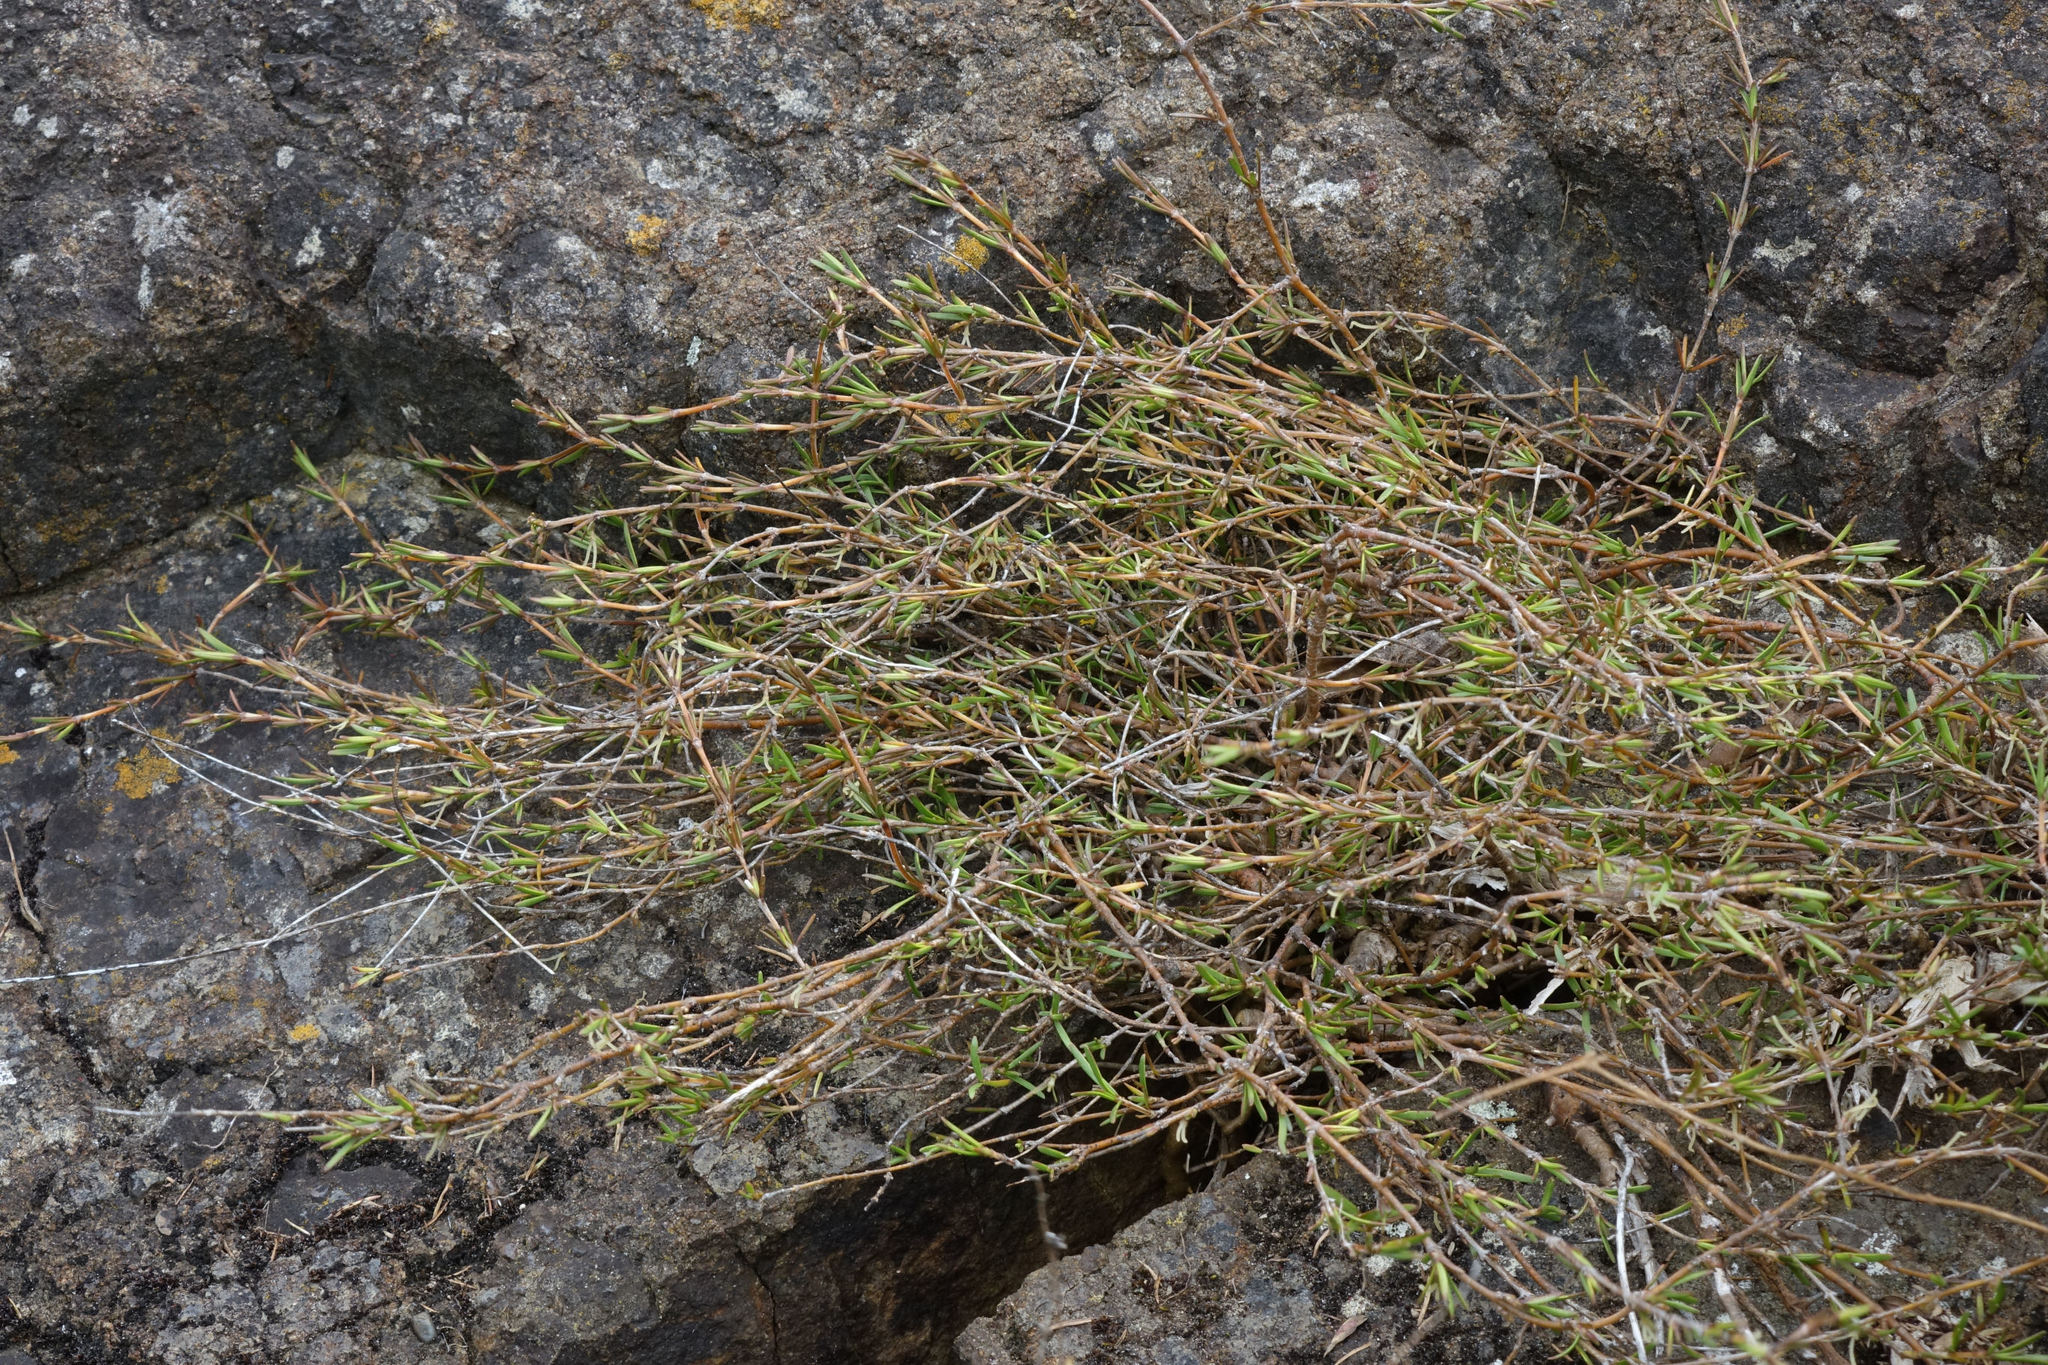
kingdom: Plantae
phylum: Tracheophyta
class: Magnoliopsida
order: Gentianales
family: Rubiaceae
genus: Coprosma
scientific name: Coprosma acerosa
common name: Sand coprosma
